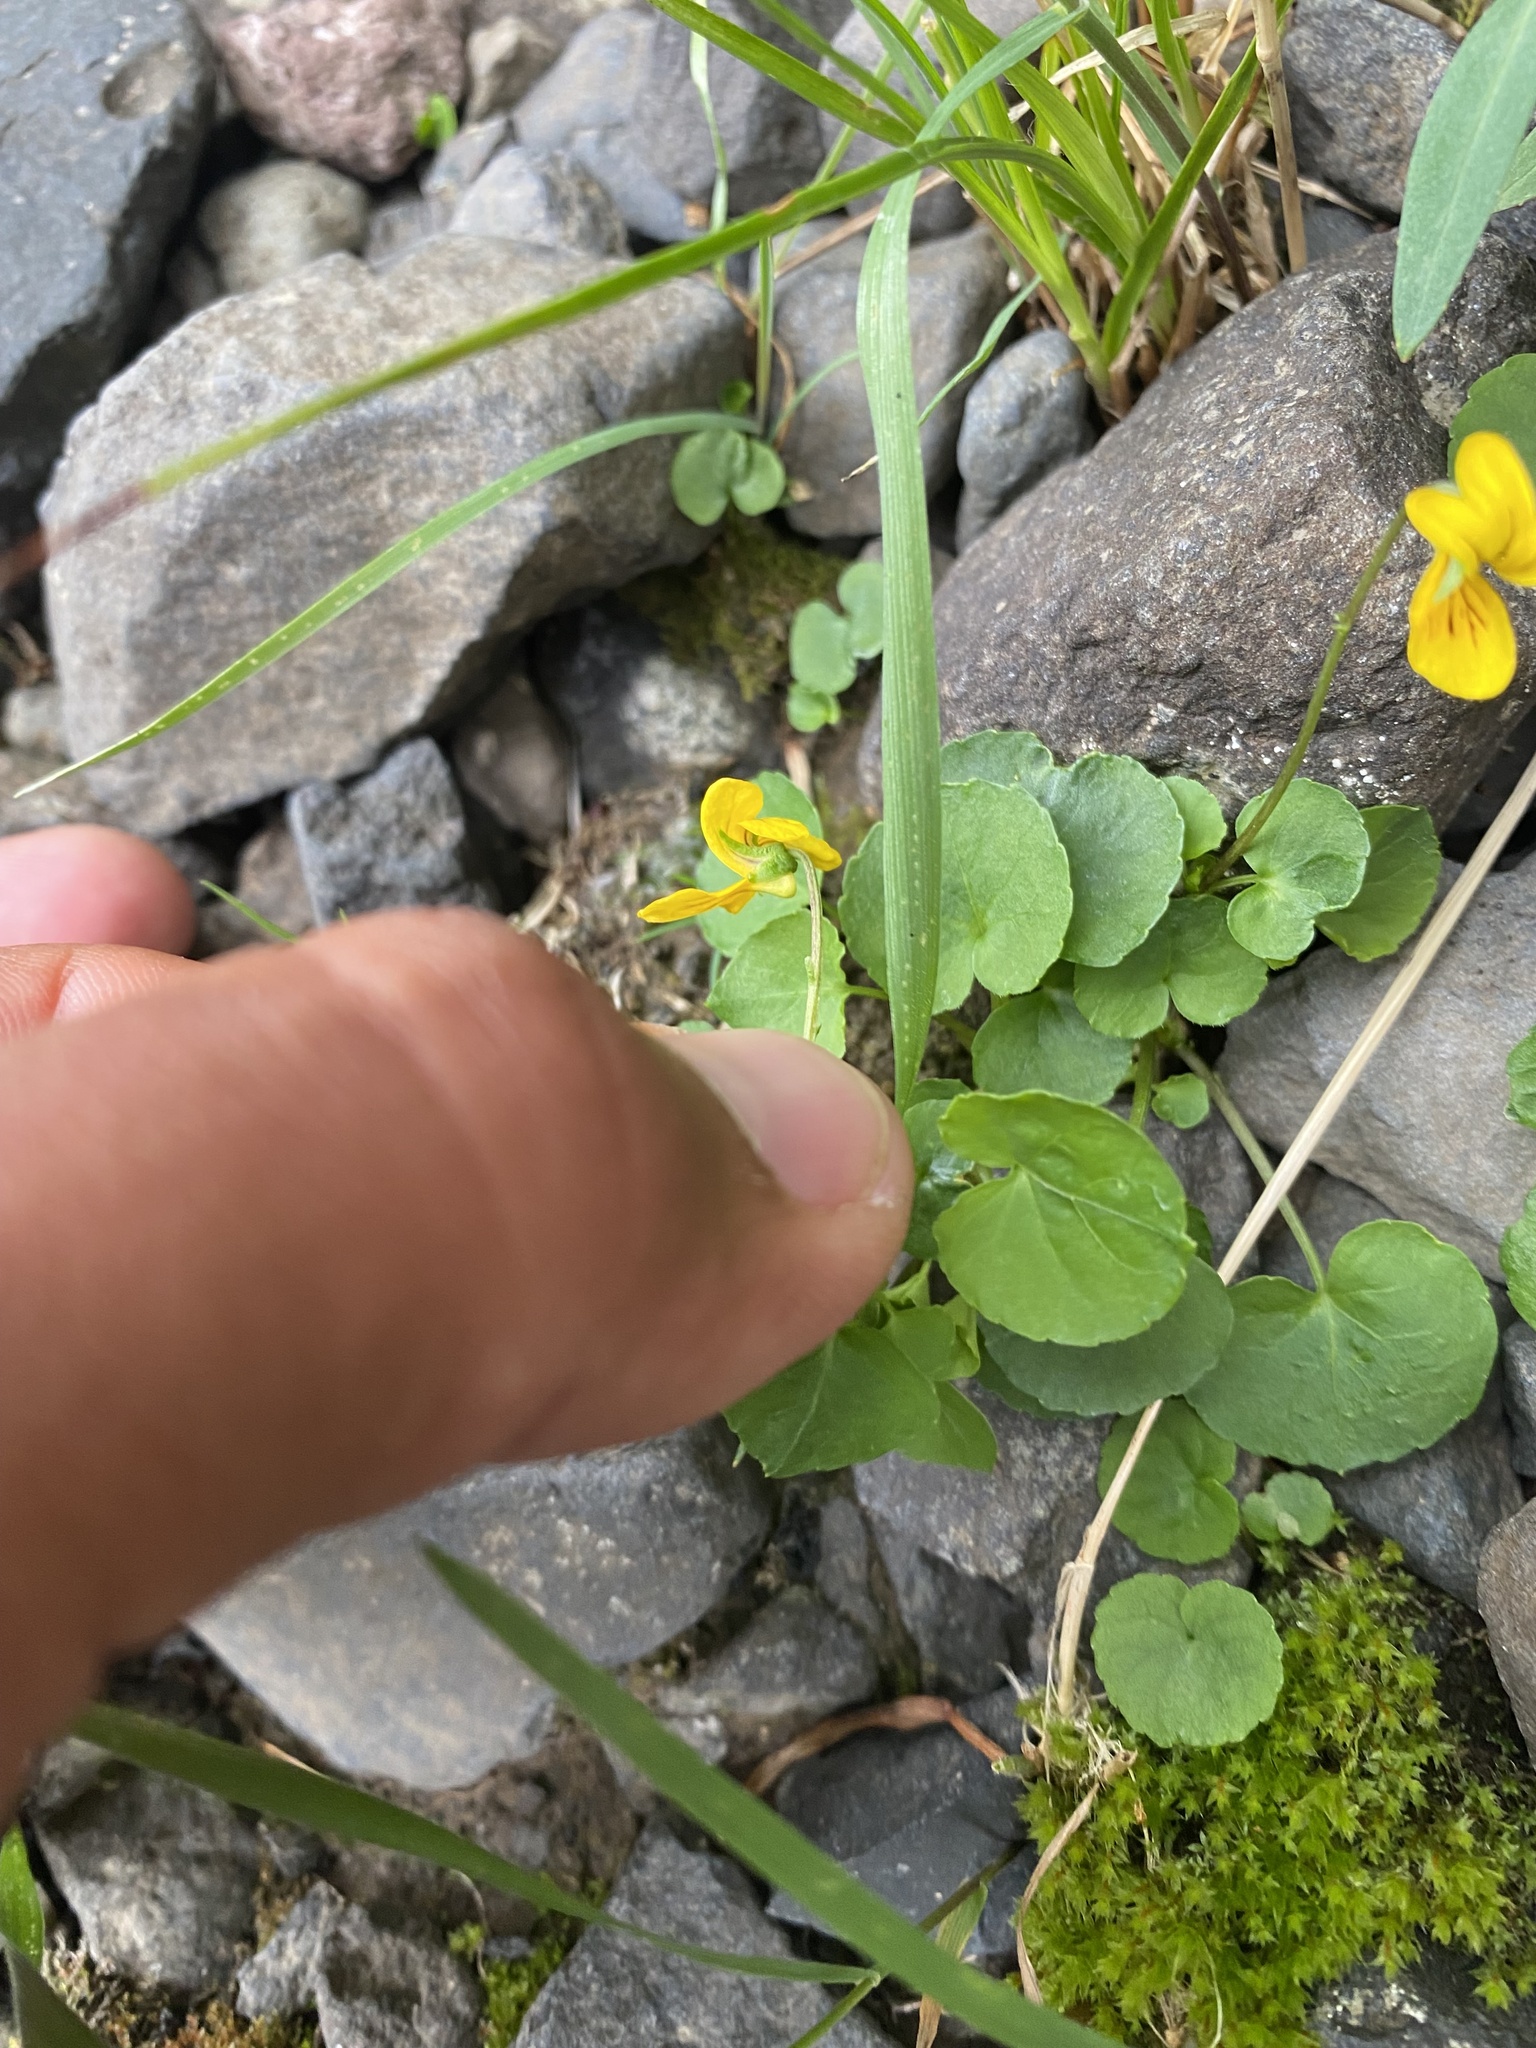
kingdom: Plantae
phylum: Tracheophyta
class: Magnoliopsida
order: Malpighiales
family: Violaceae
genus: Viola
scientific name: Viola biflora
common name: Alpine yellow violet
